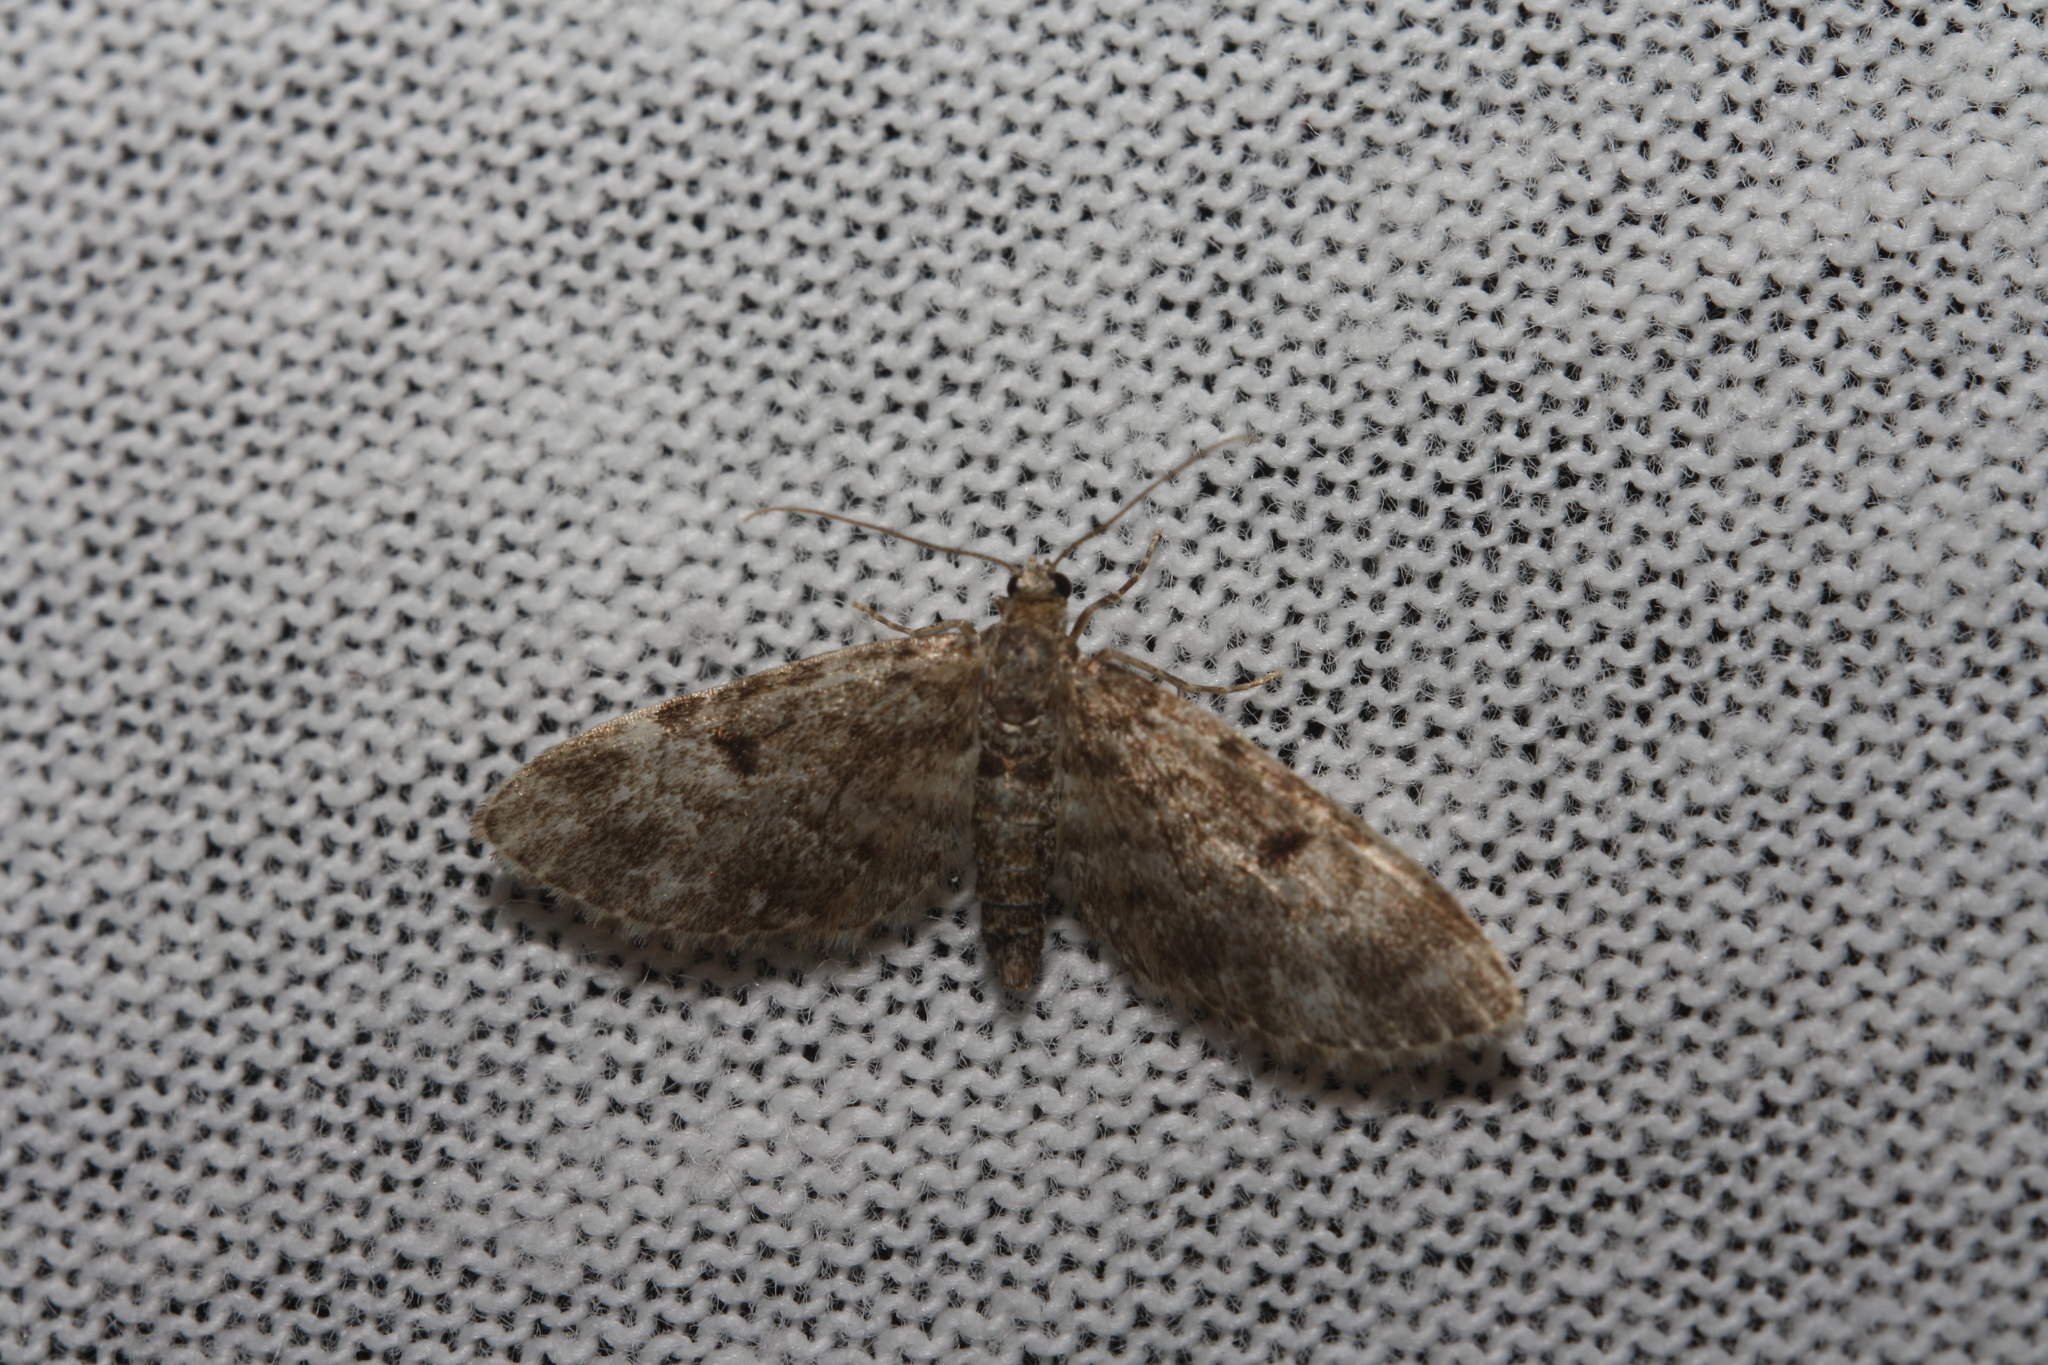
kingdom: Animalia
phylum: Arthropoda
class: Insecta
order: Lepidoptera
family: Geometridae
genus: Eupithecia
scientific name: Eupithecia tantillaria
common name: Dwarf pug
